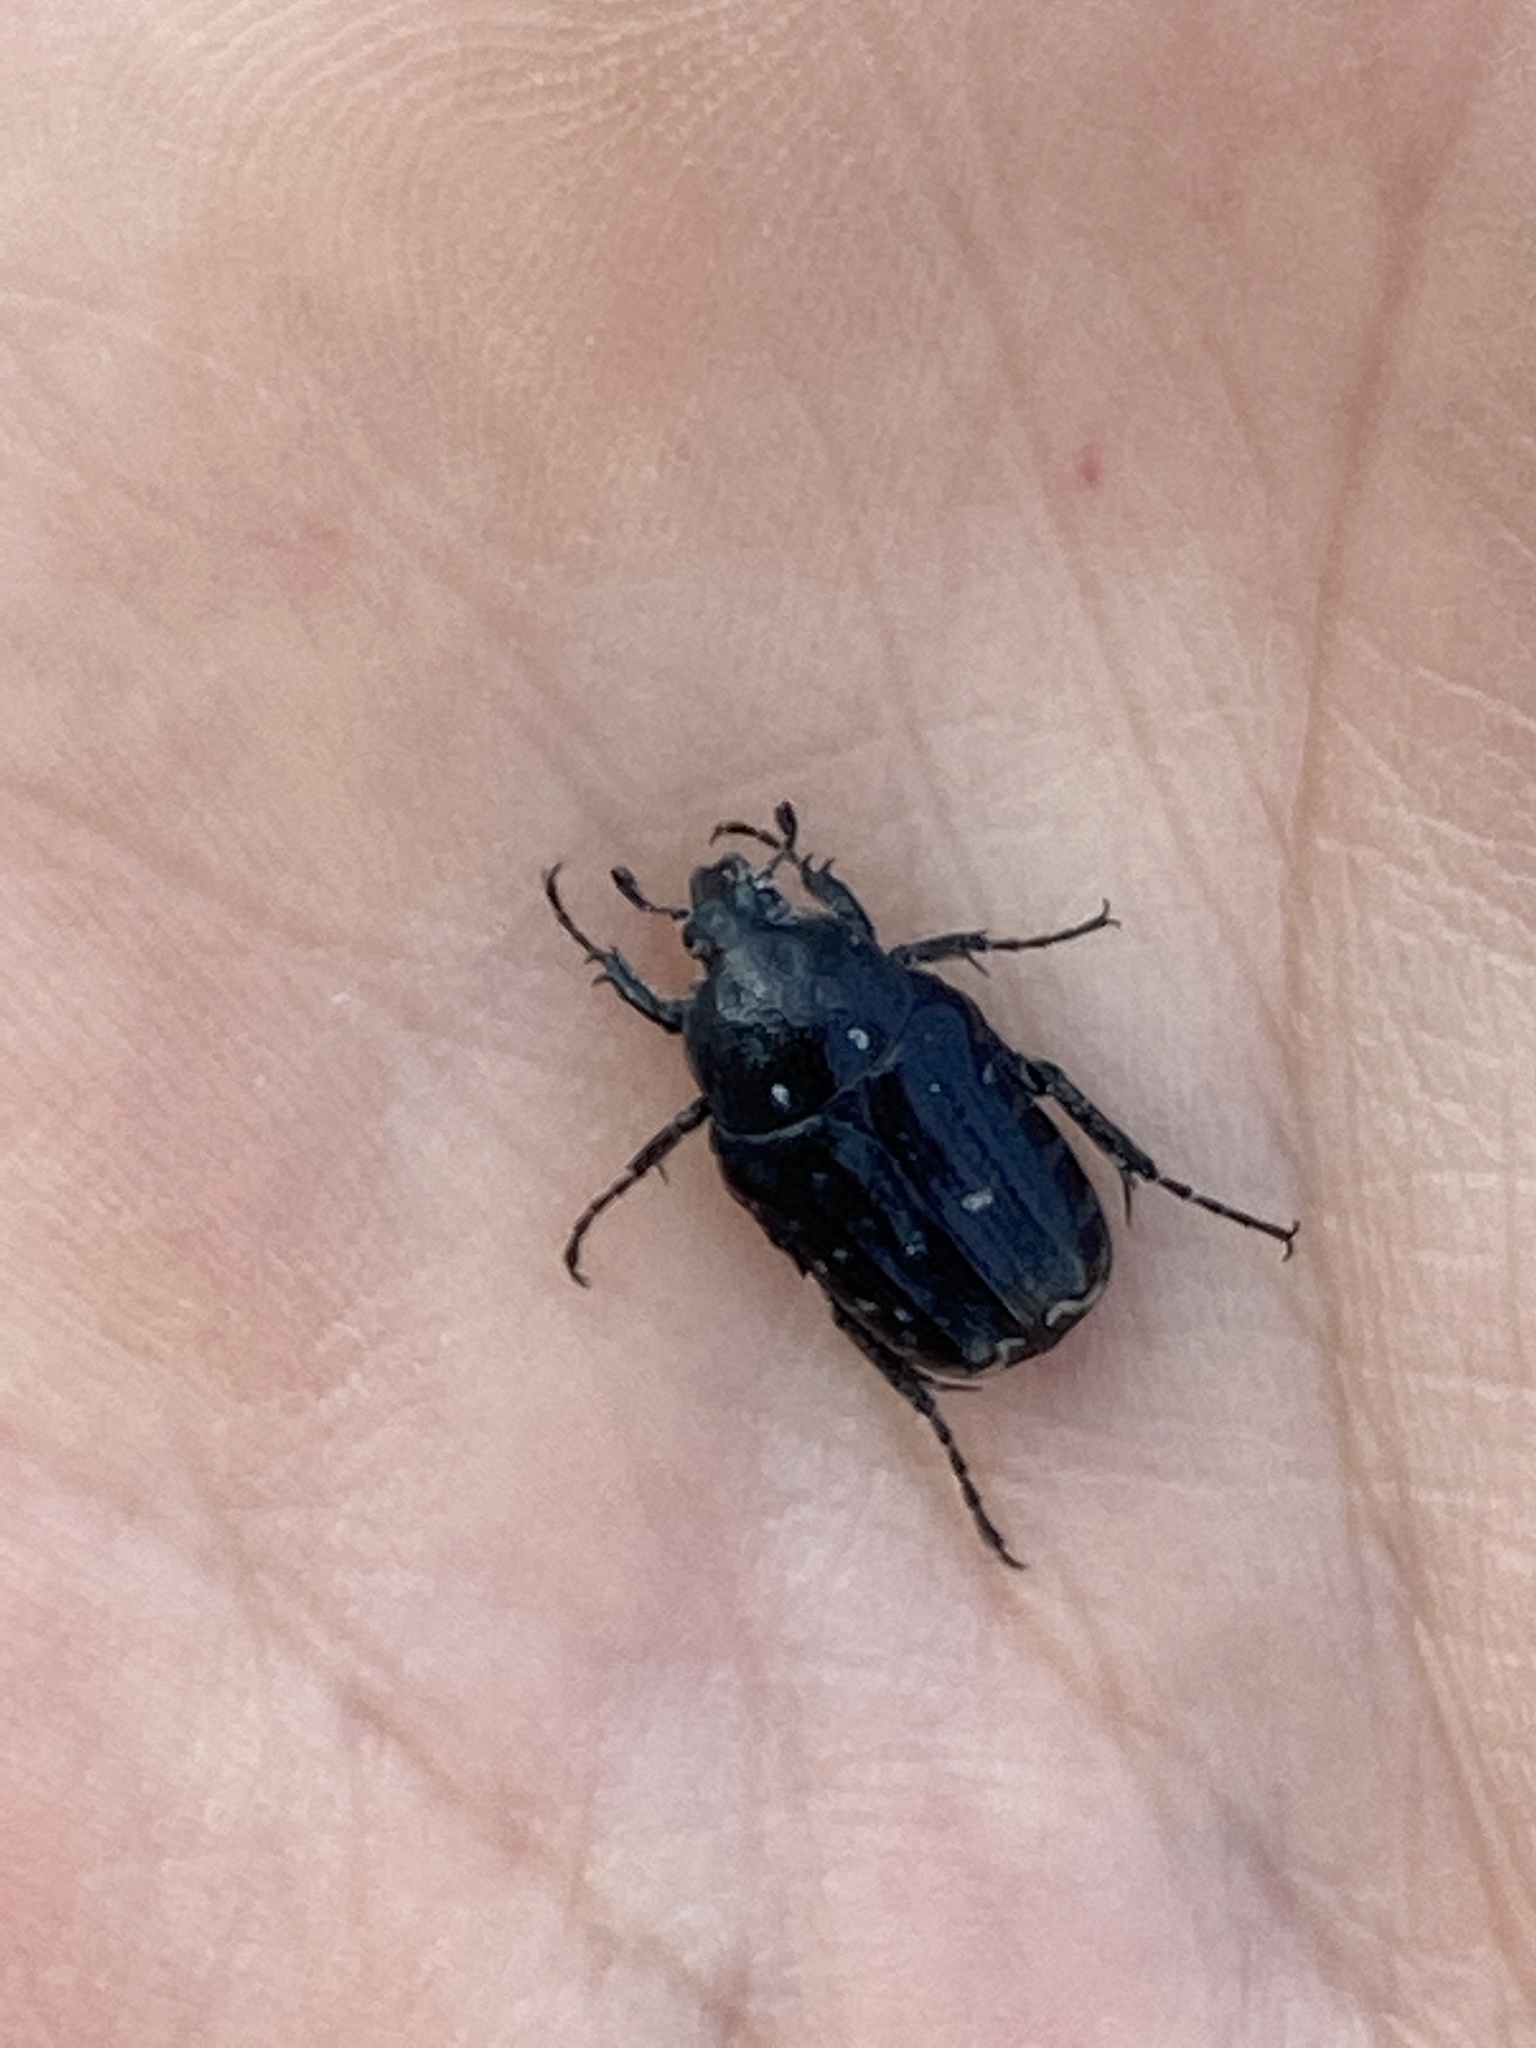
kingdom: Animalia
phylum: Arthropoda
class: Insecta
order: Coleoptera
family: Scarabaeidae
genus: Oxythyrea
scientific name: Oxythyrea funesta
